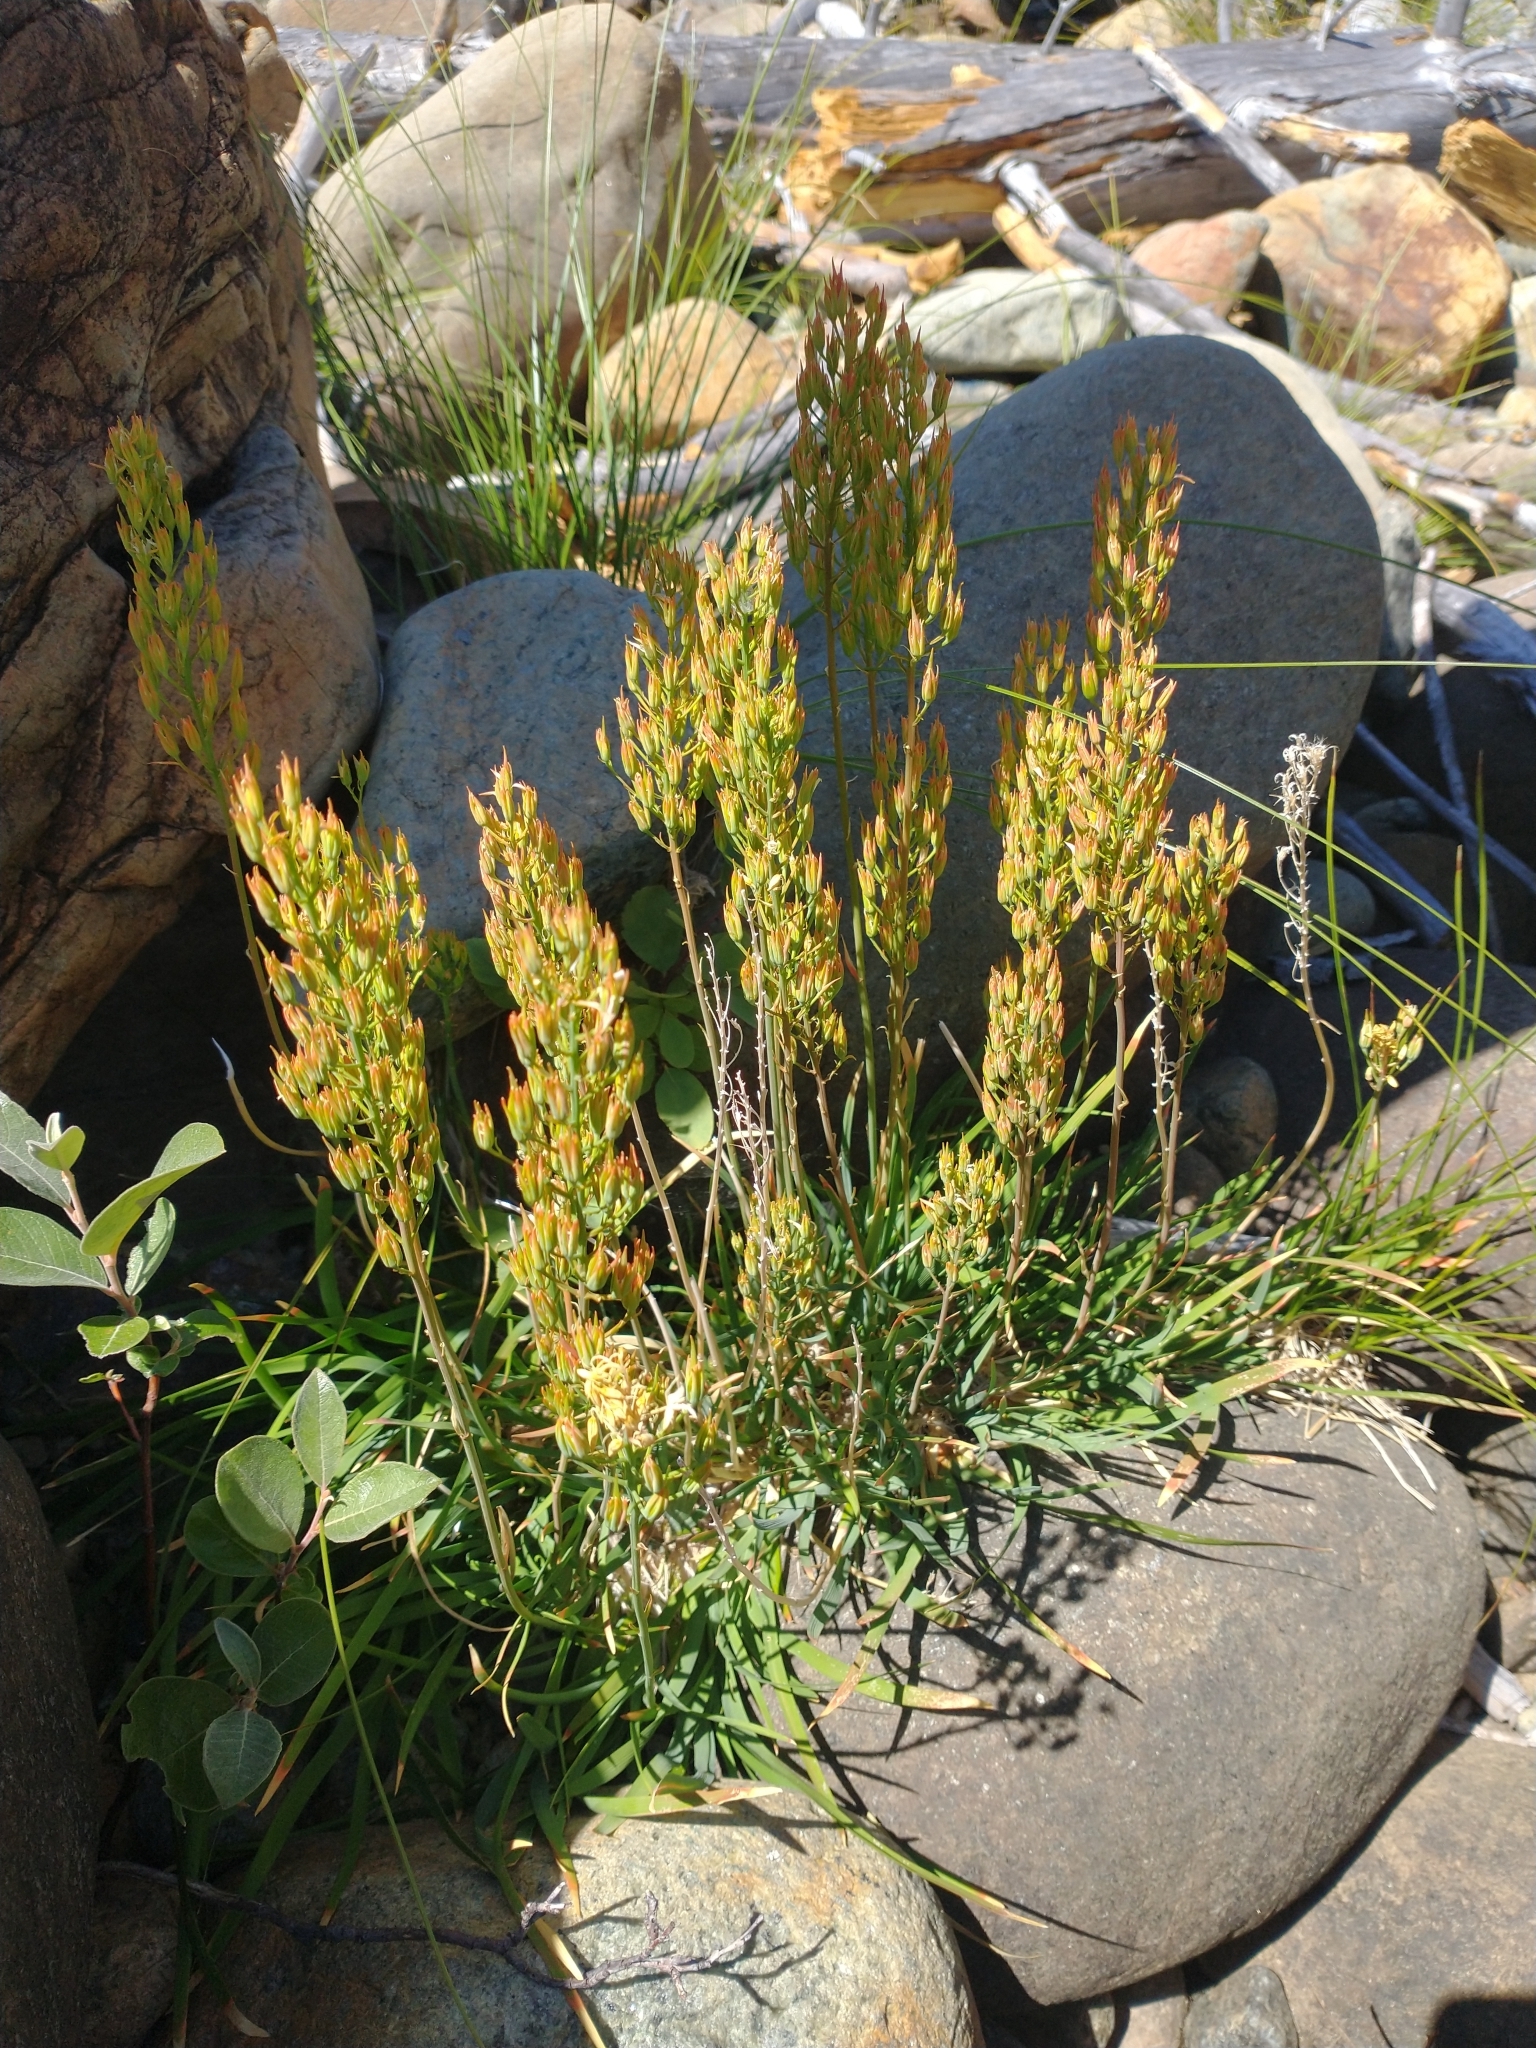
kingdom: Plantae
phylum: Tracheophyta
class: Liliopsida
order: Dioscoreales
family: Nartheciaceae
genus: Narthecium
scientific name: Narthecium californicum
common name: California bog-asphodel
